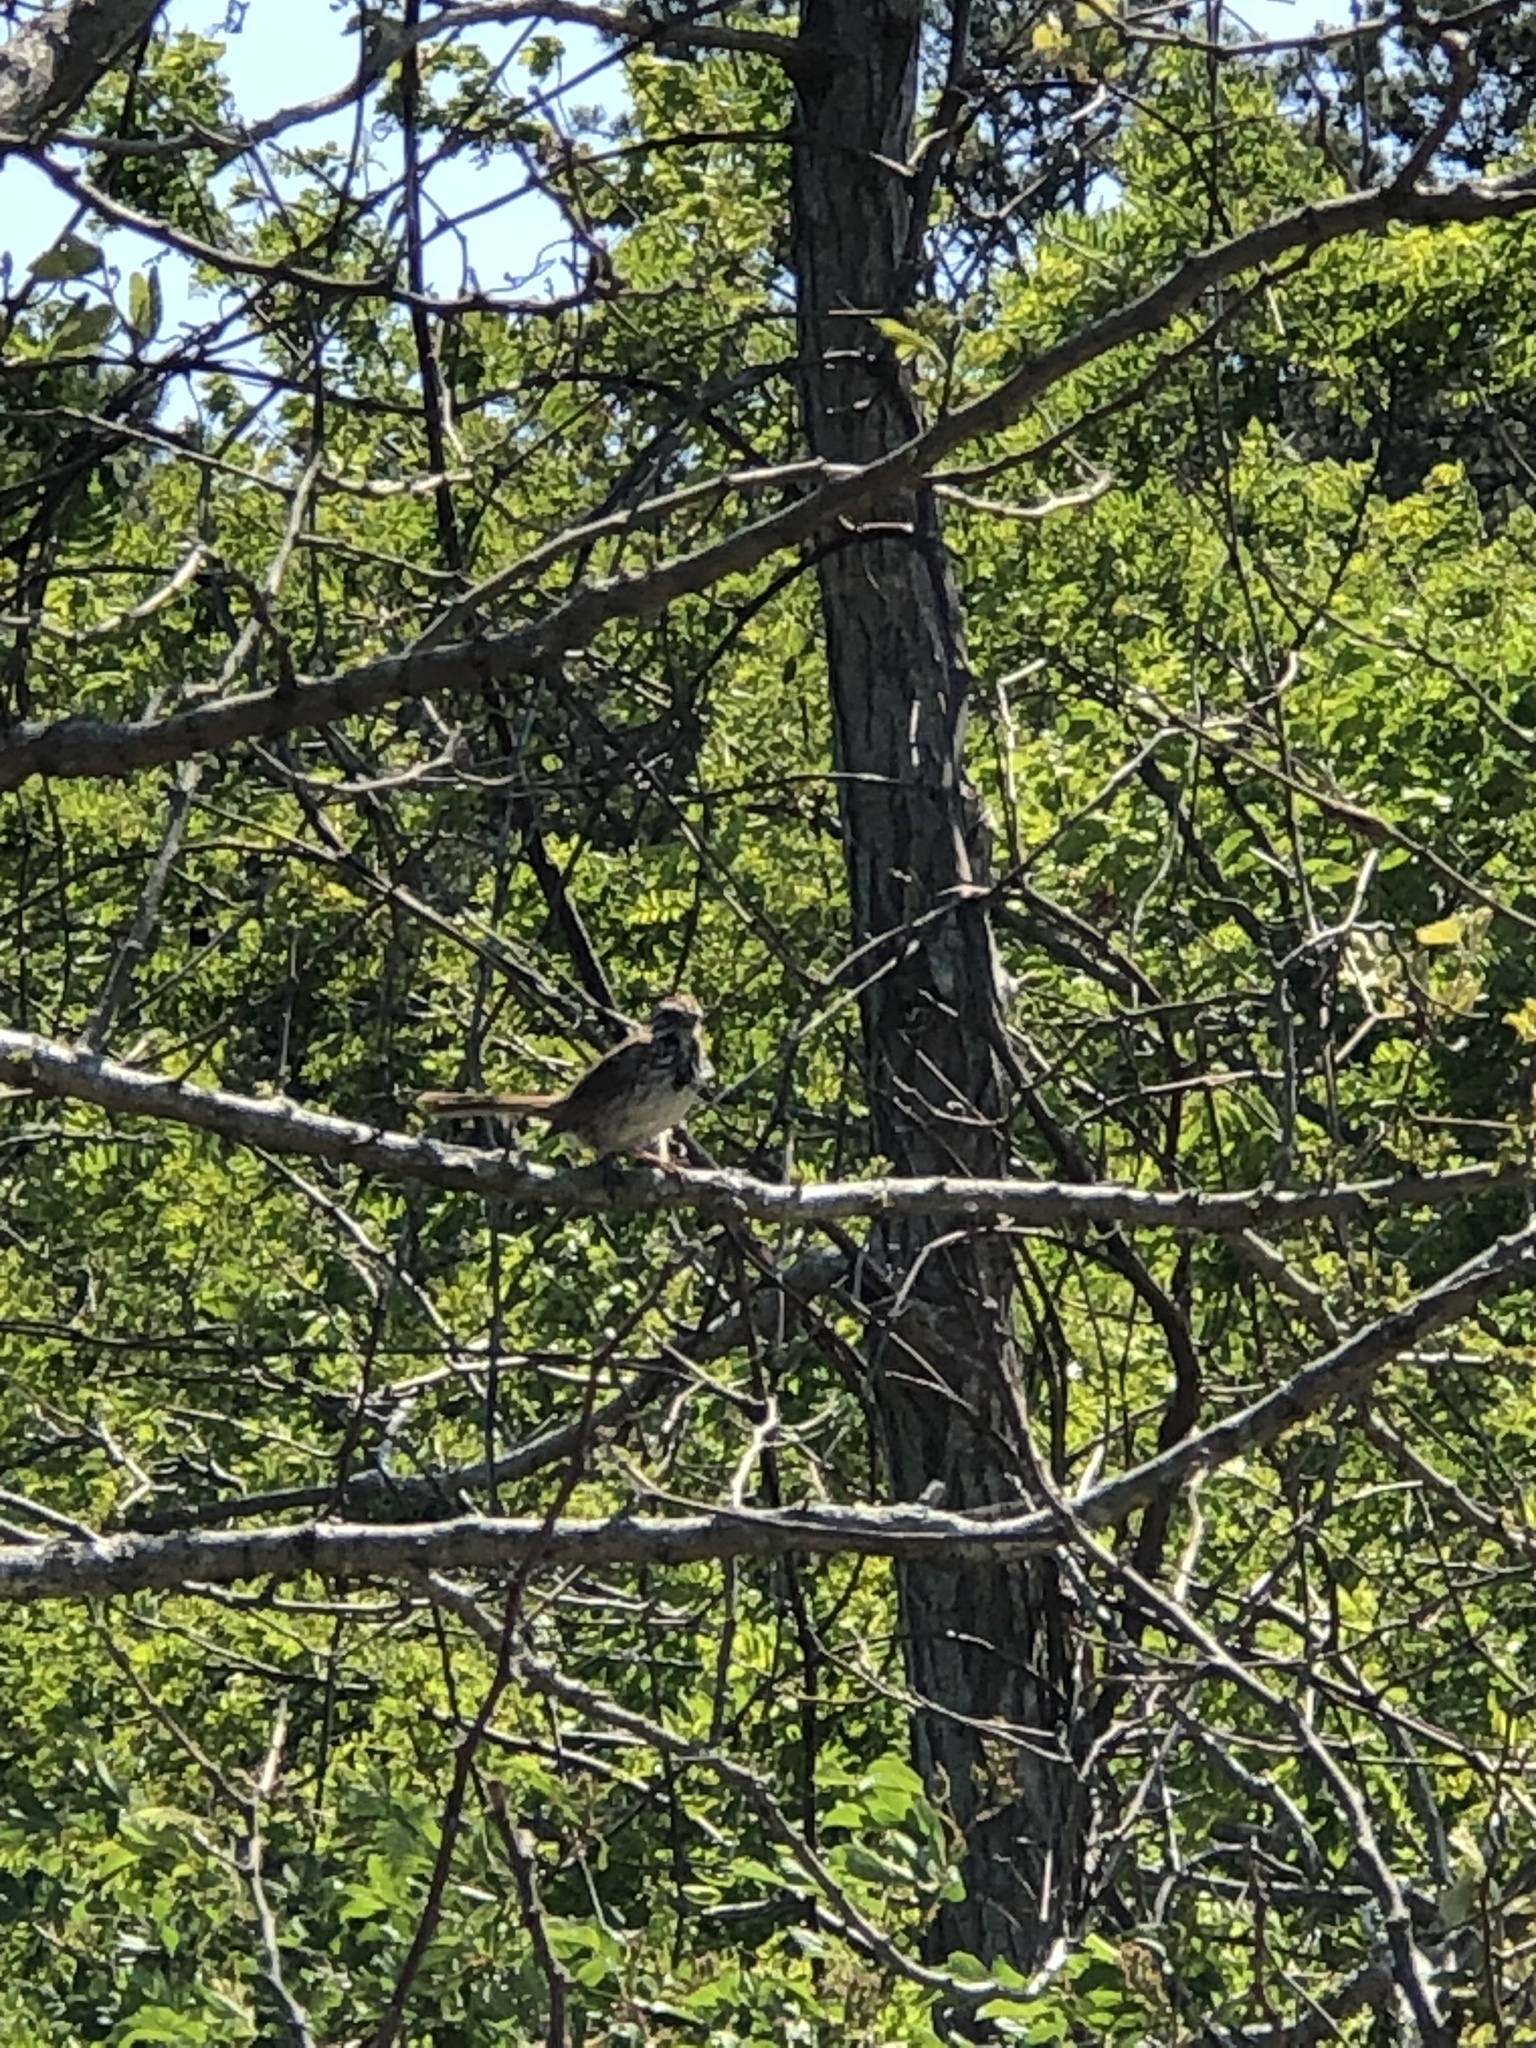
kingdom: Animalia
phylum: Chordata
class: Aves
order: Passeriformes
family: Passerellidae
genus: Melospiza
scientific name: Melospiza melodia
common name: Song sparrow
